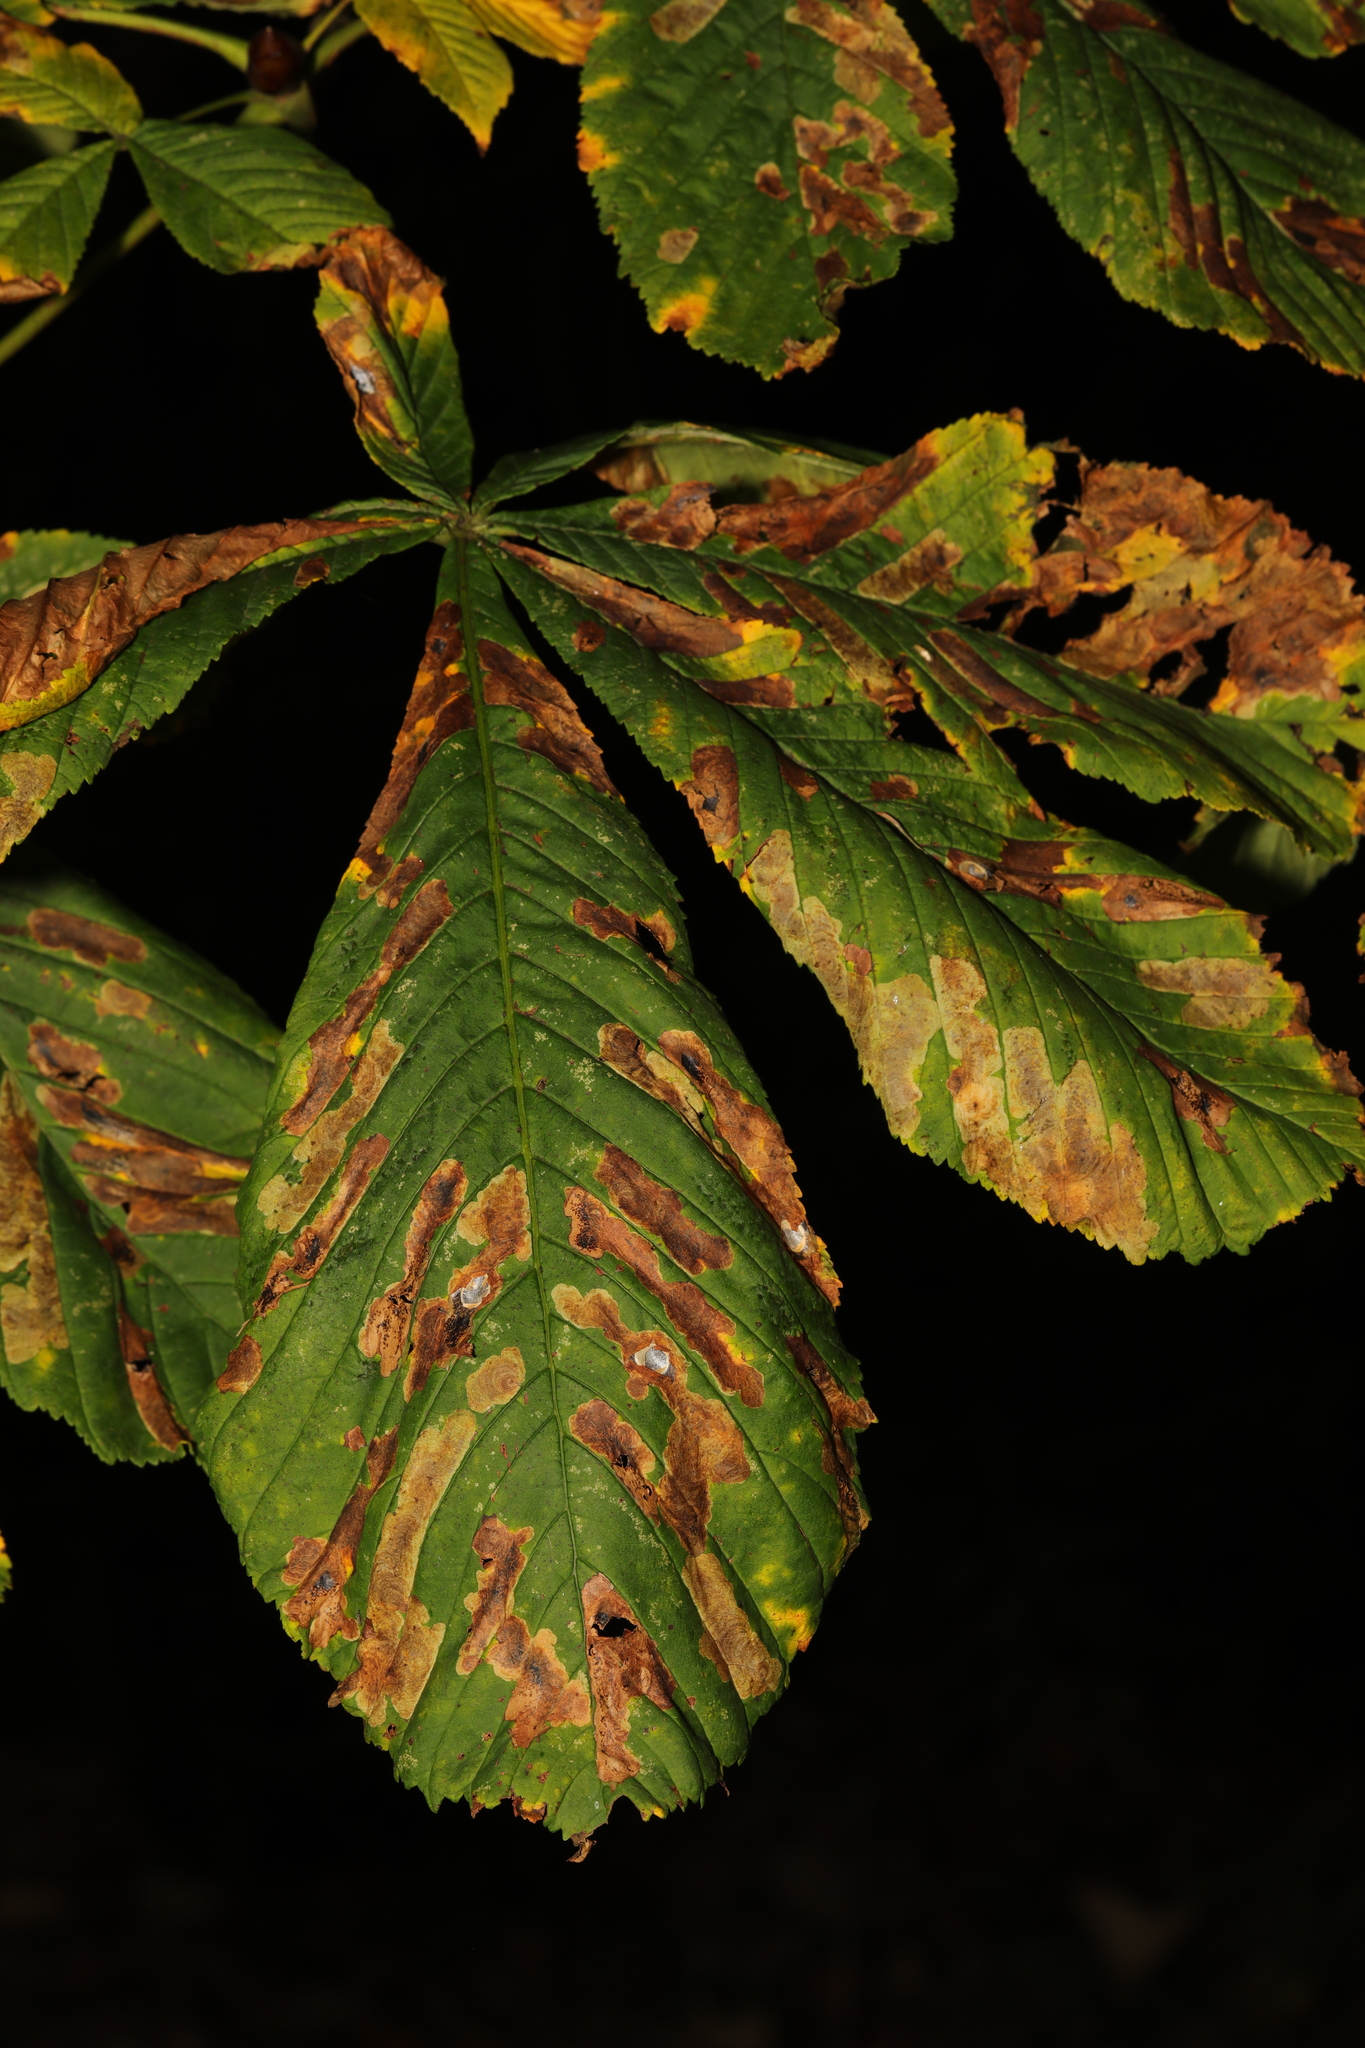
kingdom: Animalia
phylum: Arthropoda
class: Insecta
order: Lepidoptera
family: Gracillariidae
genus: Cameraria
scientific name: Cameraria ohridella
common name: Horse-chestnut leaf-miner
